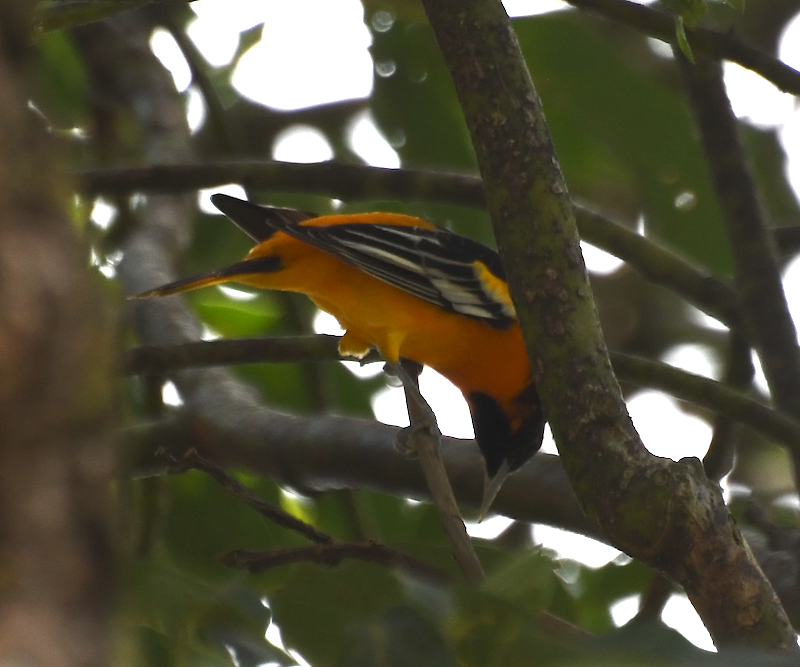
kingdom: Animalia
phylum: Chordata
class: Aves
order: Passeriformes
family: Icteridae
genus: Icterus
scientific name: Icterus galbula
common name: Baltimore oriole
